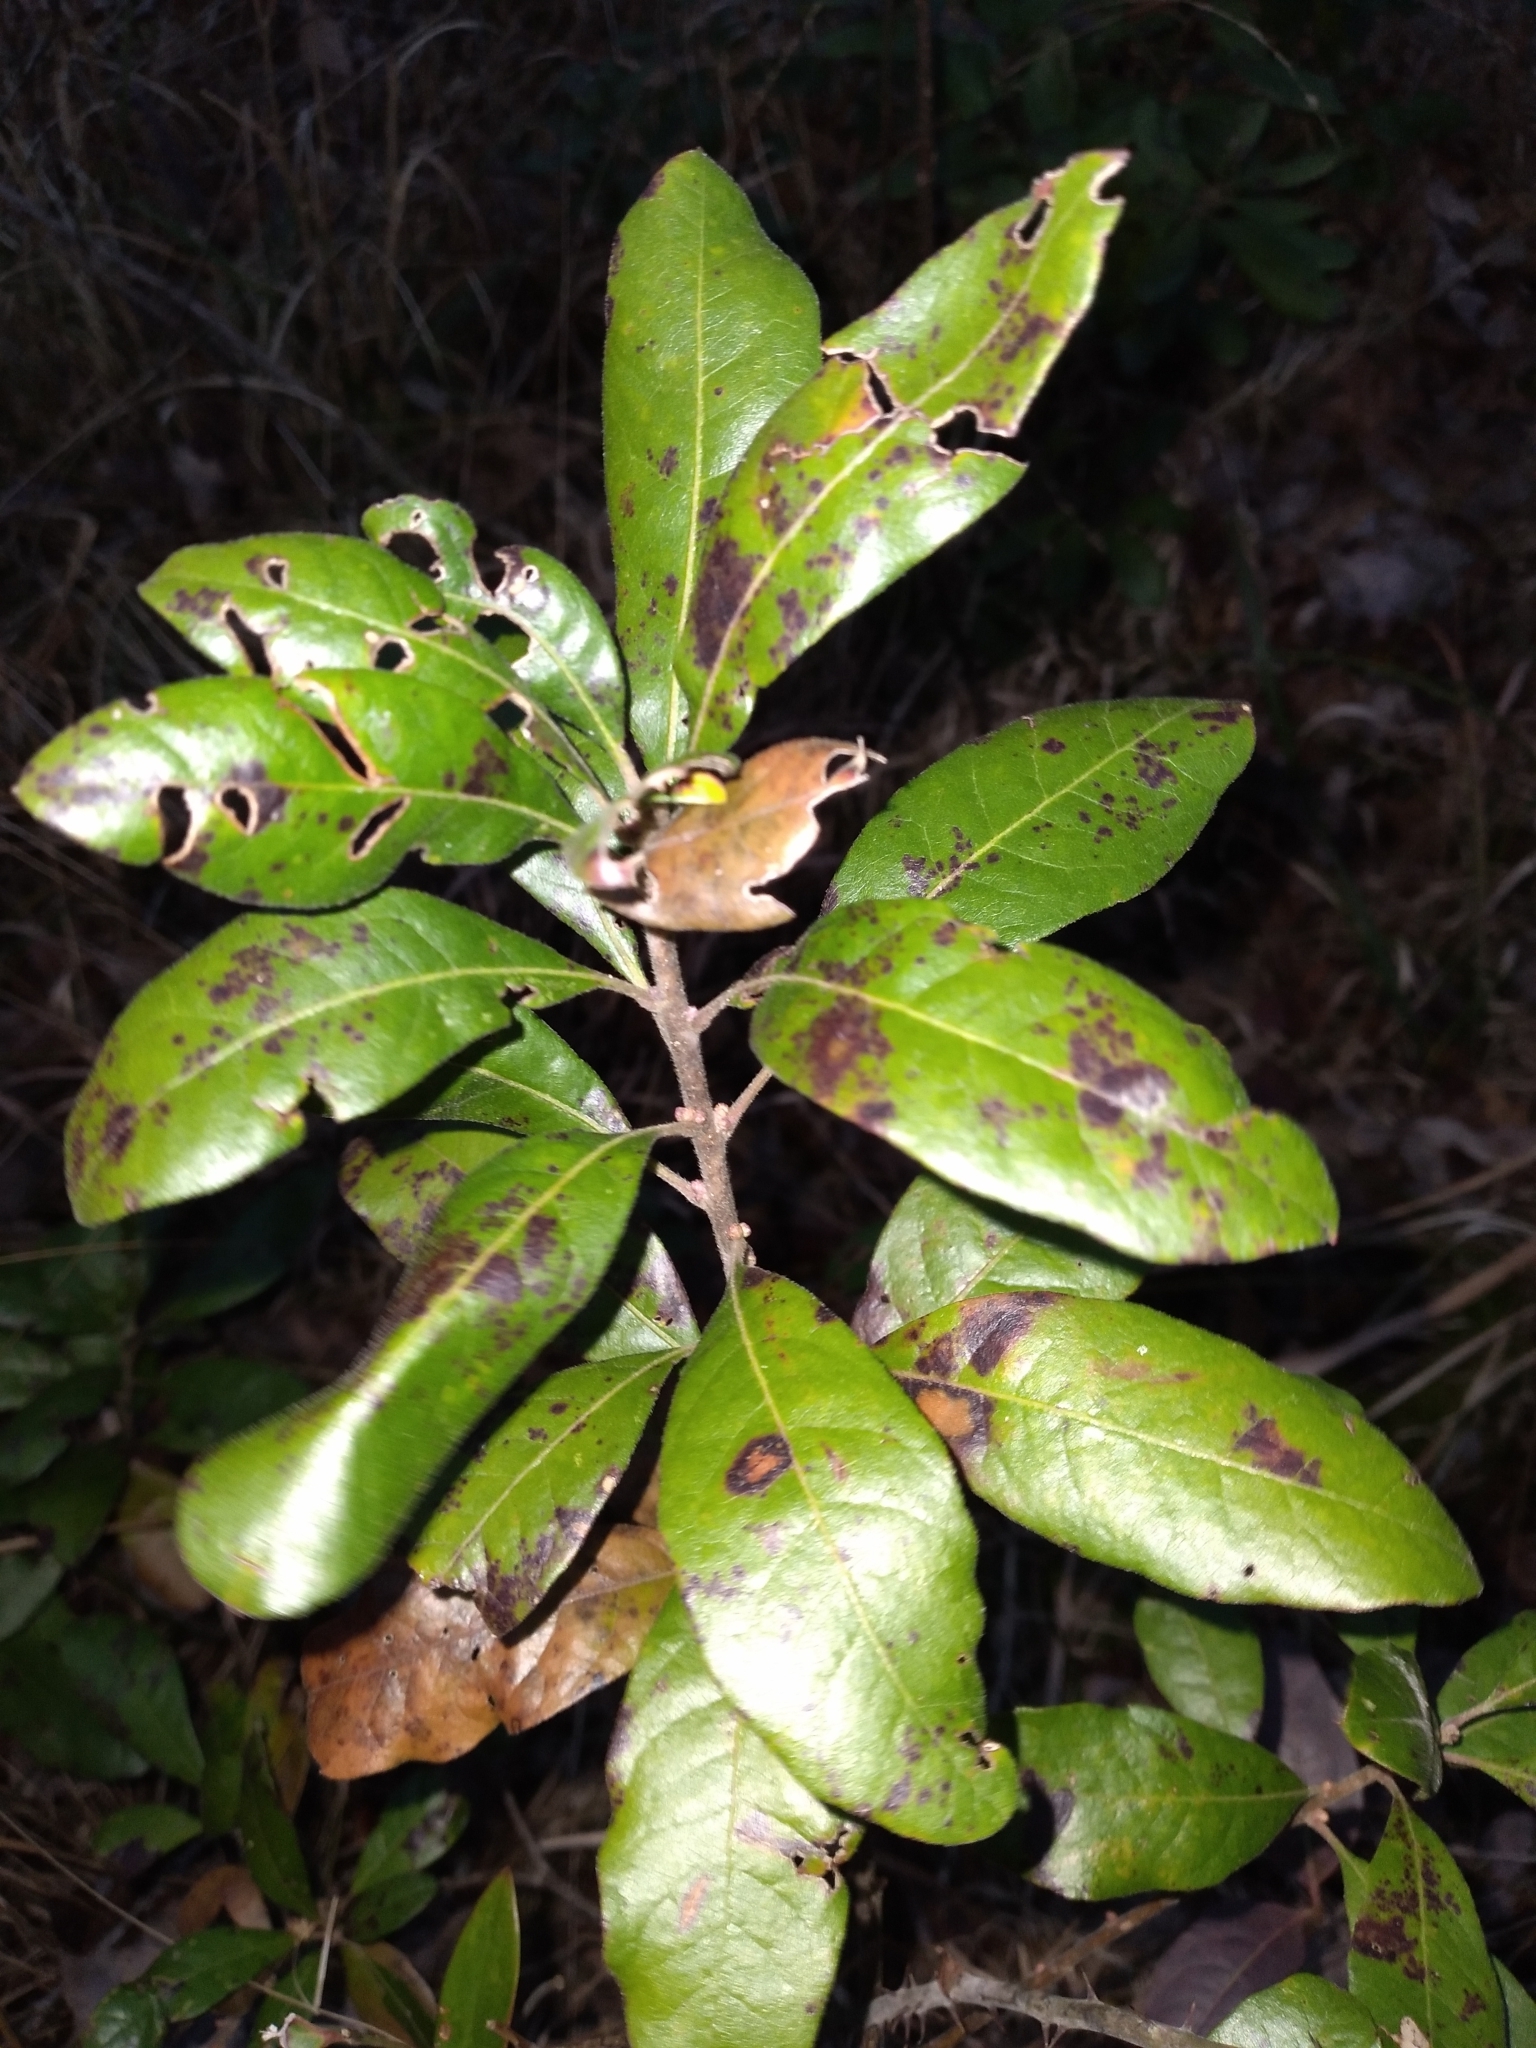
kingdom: Plantae
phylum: Tracheophyta
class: Magnoliopsida
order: Fagales
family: Myricaceae
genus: Morella
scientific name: Morella caroliniensis
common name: Evergreen bayberry
